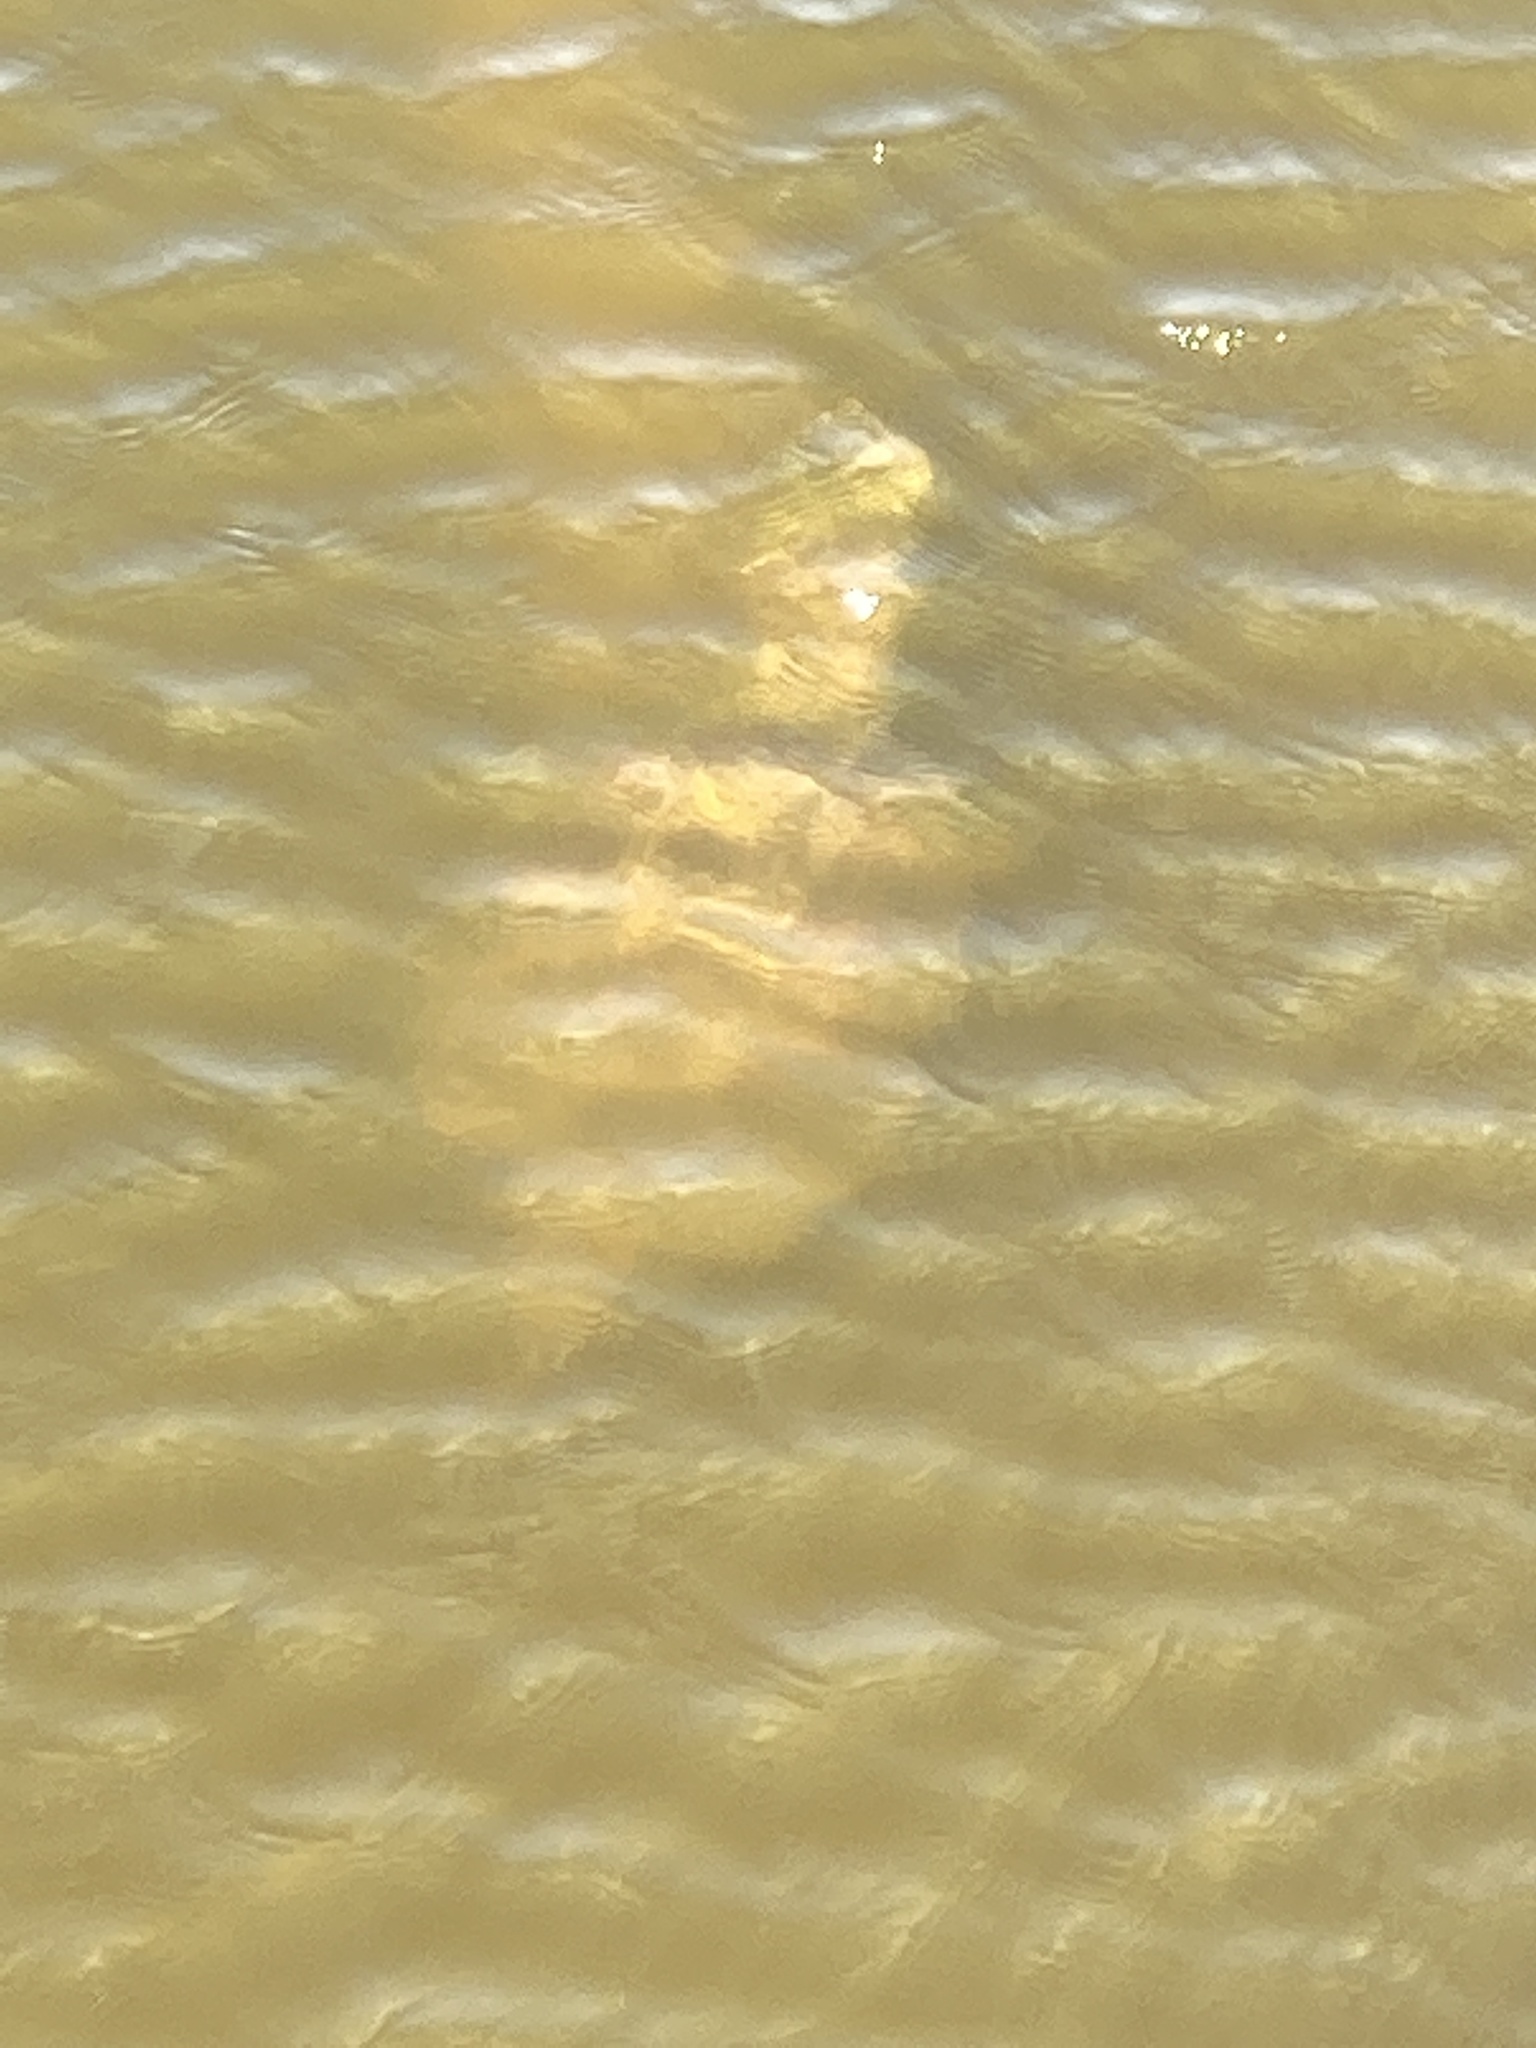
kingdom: Animalia
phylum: Chordata
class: Testudines
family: Chelydridae
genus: Chelydra
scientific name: Chelydra serpentina
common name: Common snapping turtle
